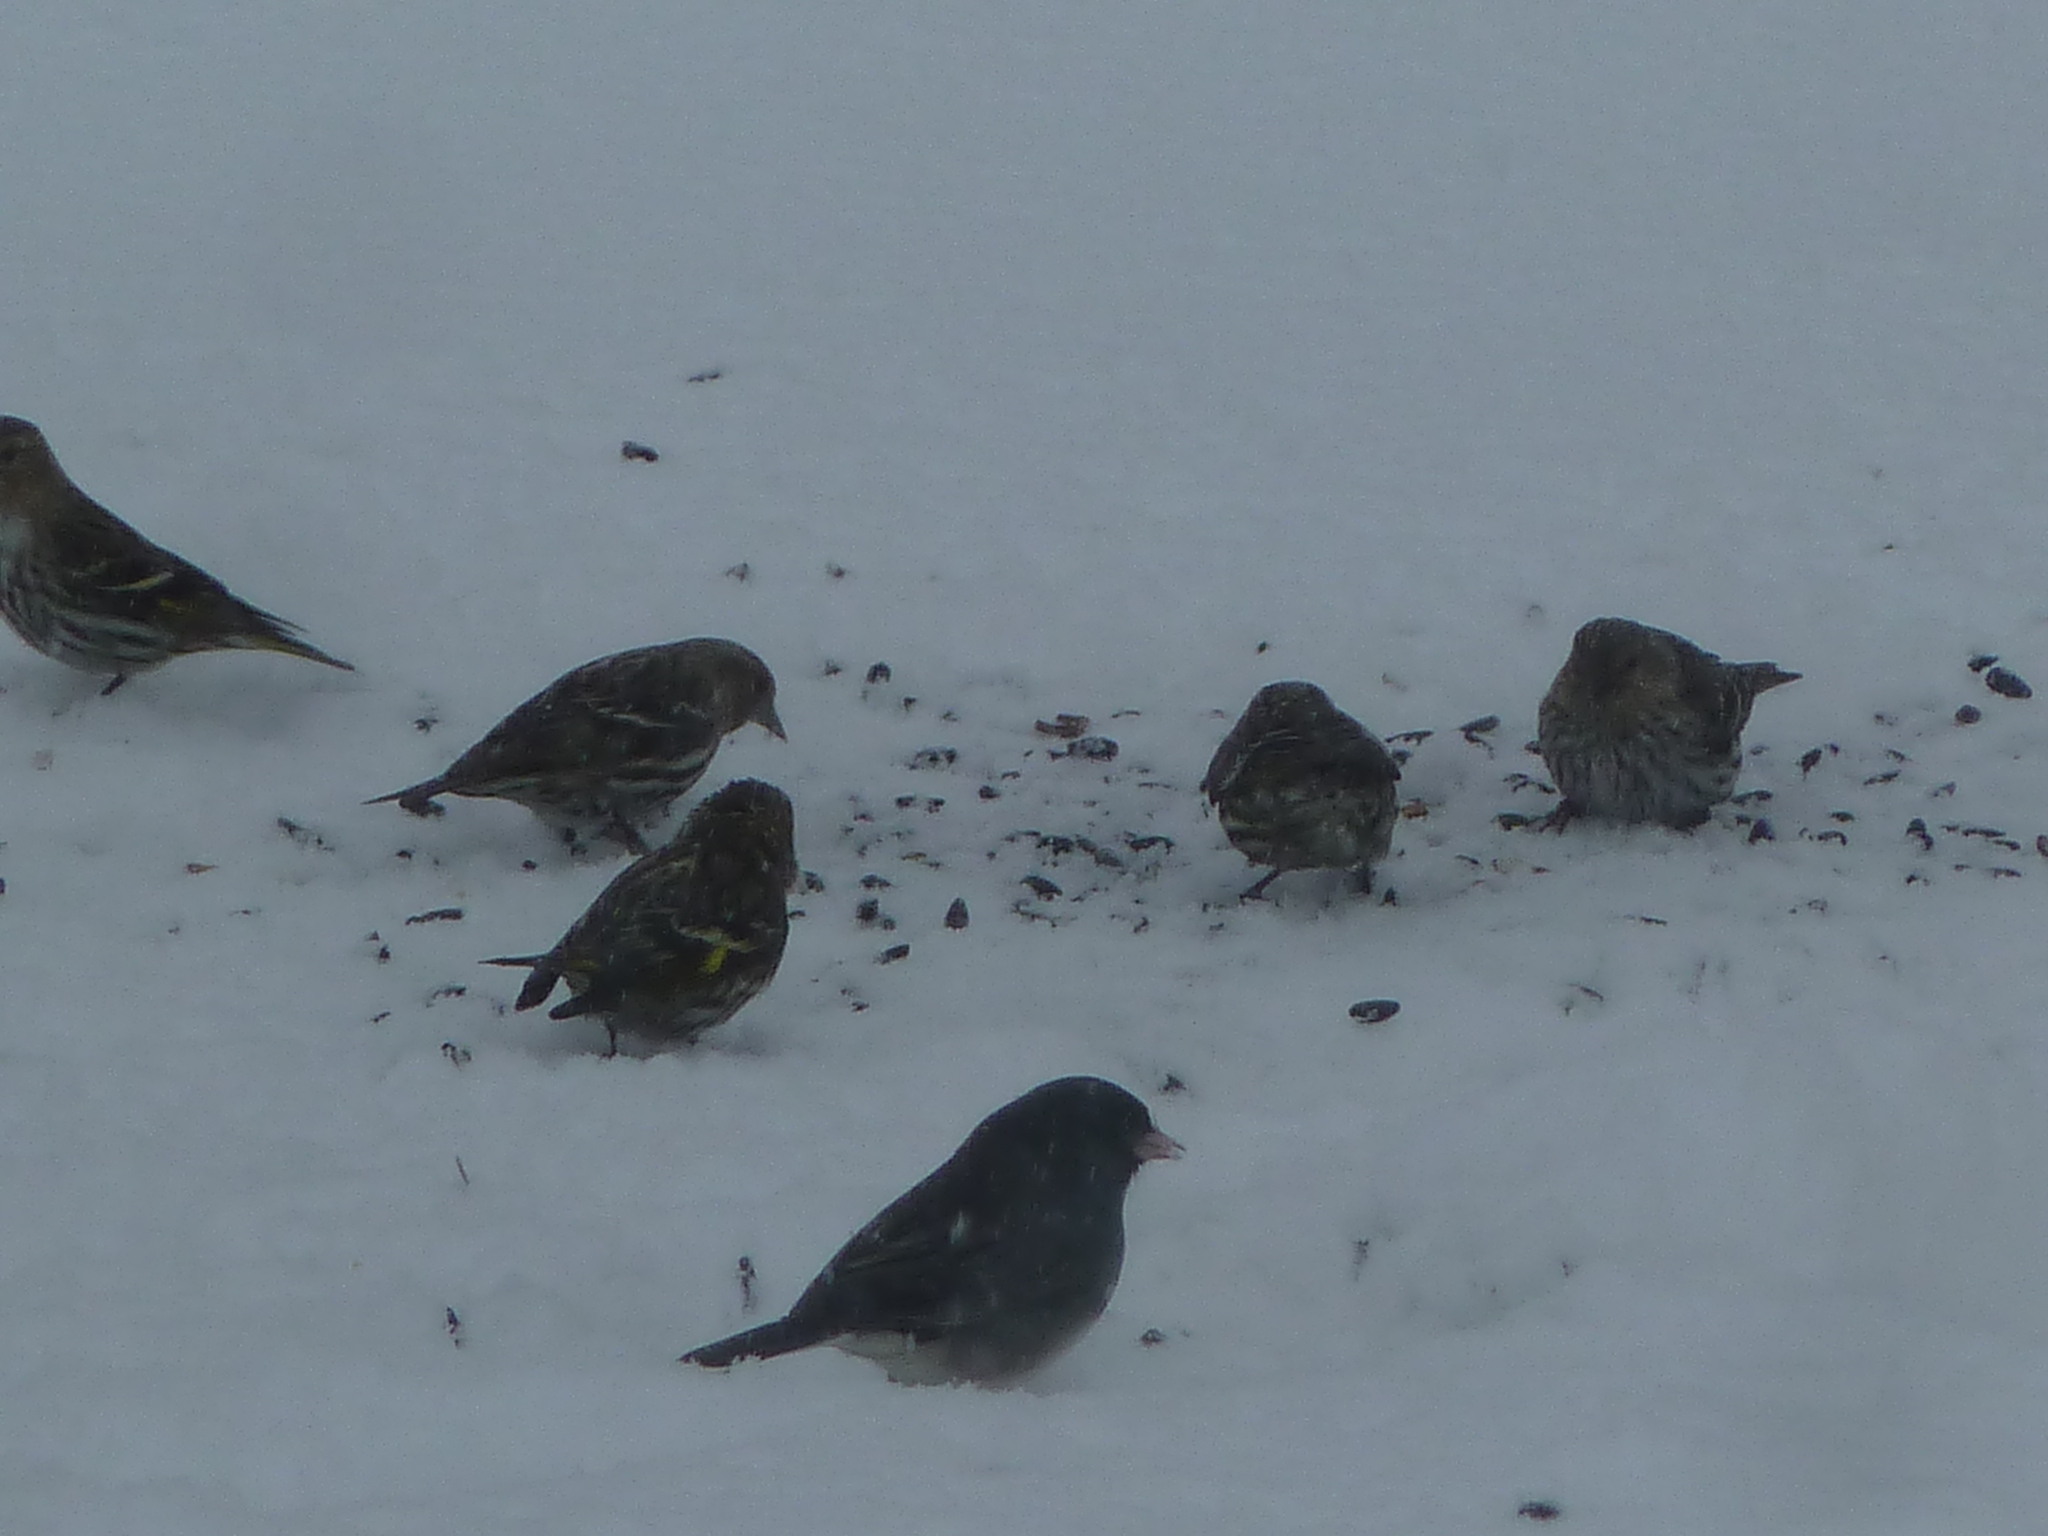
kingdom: Animalia
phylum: Chordata
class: Aves
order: Passeriformes
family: Fringillidae
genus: Spinus
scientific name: Spinus pinus
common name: Pine siskin
